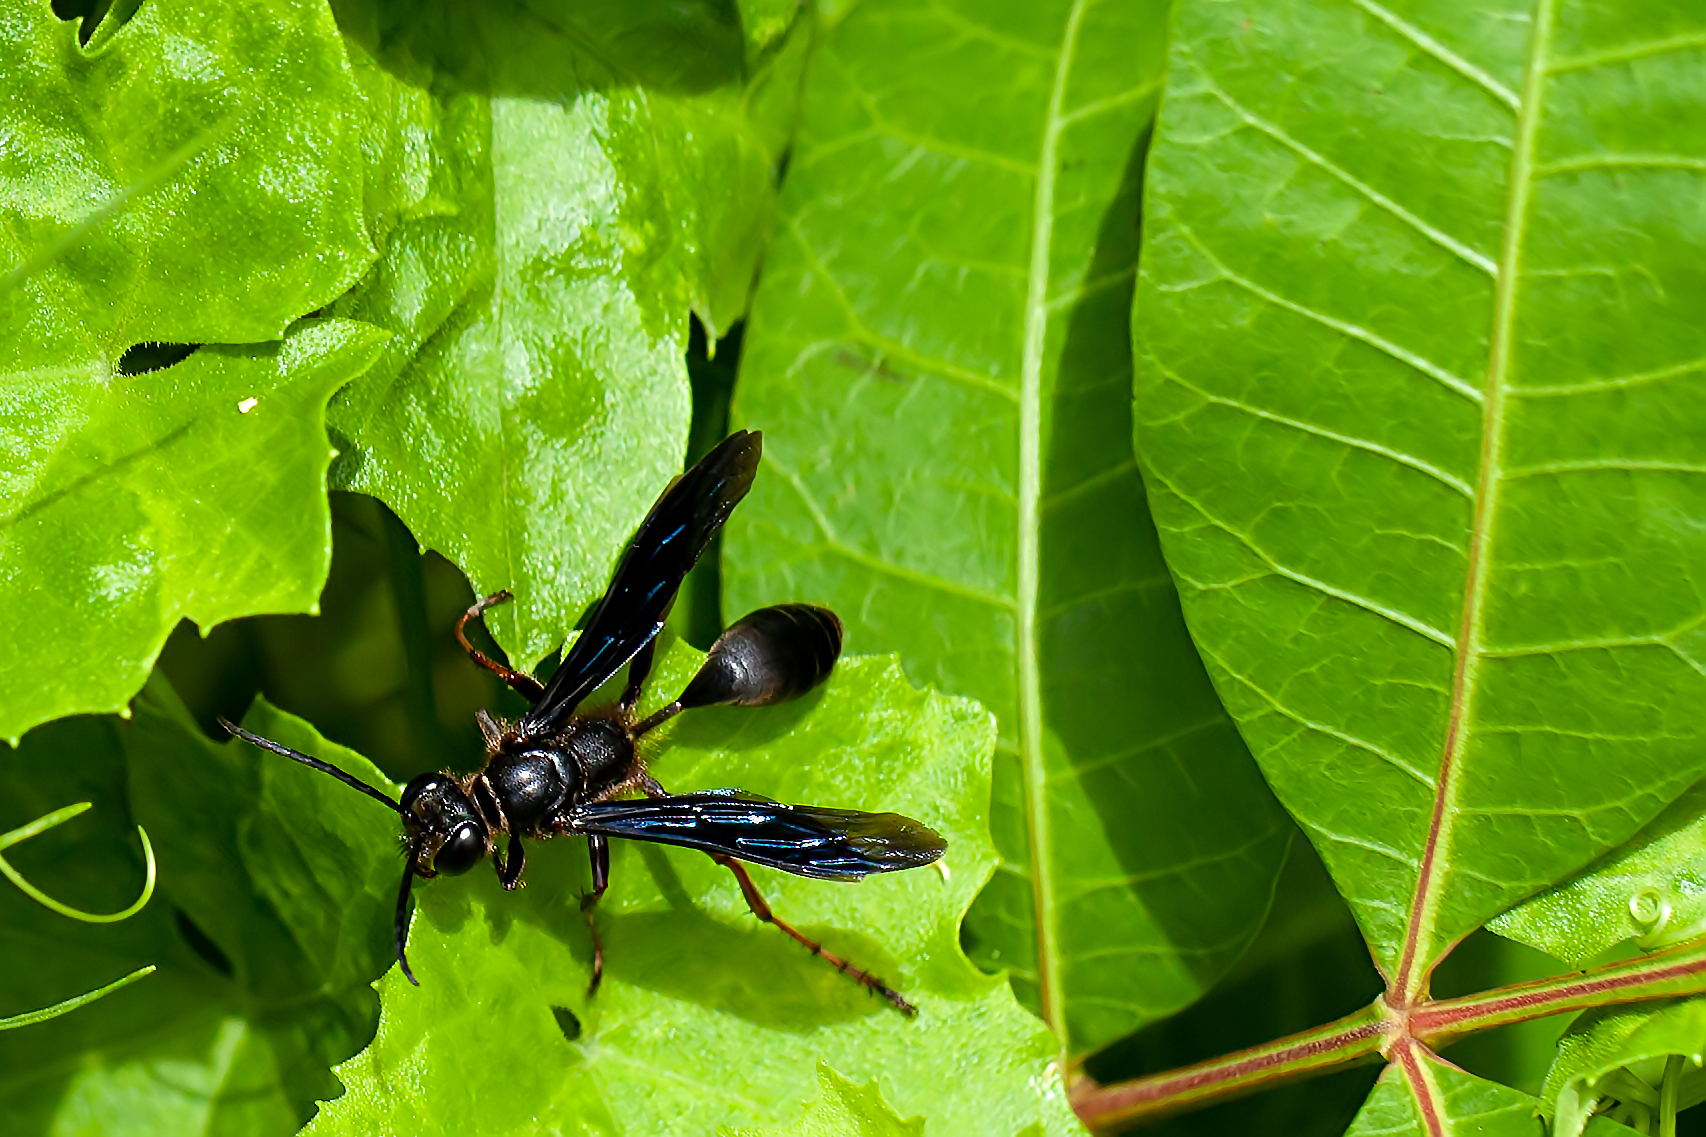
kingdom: Animalia
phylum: Arthropoda
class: Insecta
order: Hymenoptera
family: Sphecidae
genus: Isodontia
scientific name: Isodontia auripes
